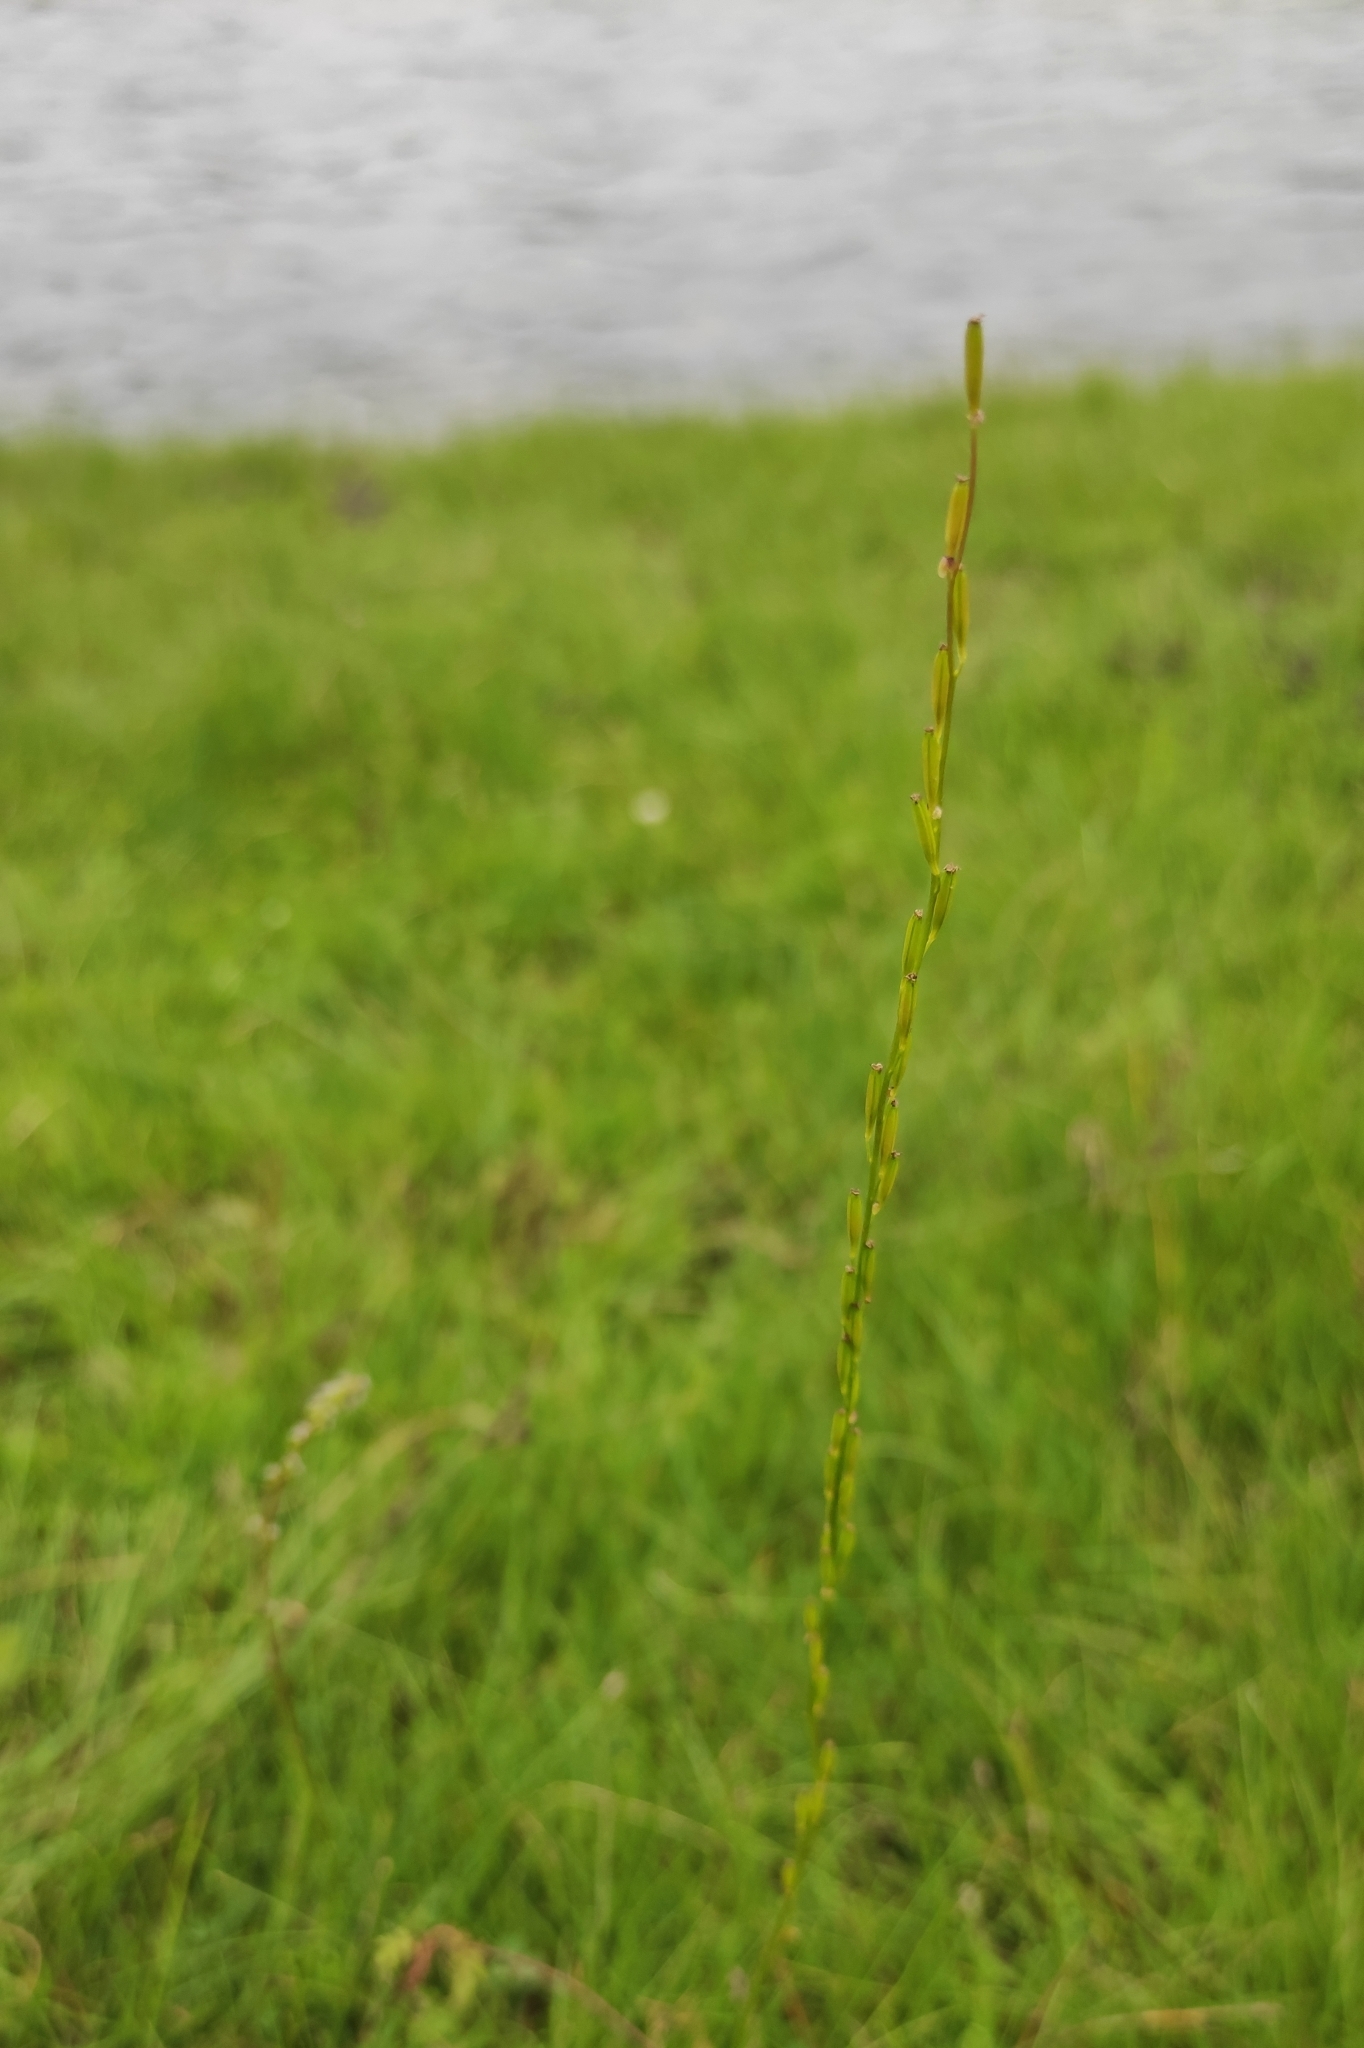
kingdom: Plantae
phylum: Tracheophyta
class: Liliopsida
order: Alismatales
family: Juncaginaceae
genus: Triglochin
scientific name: Triglochin palustris
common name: Marsh arrowgrass
